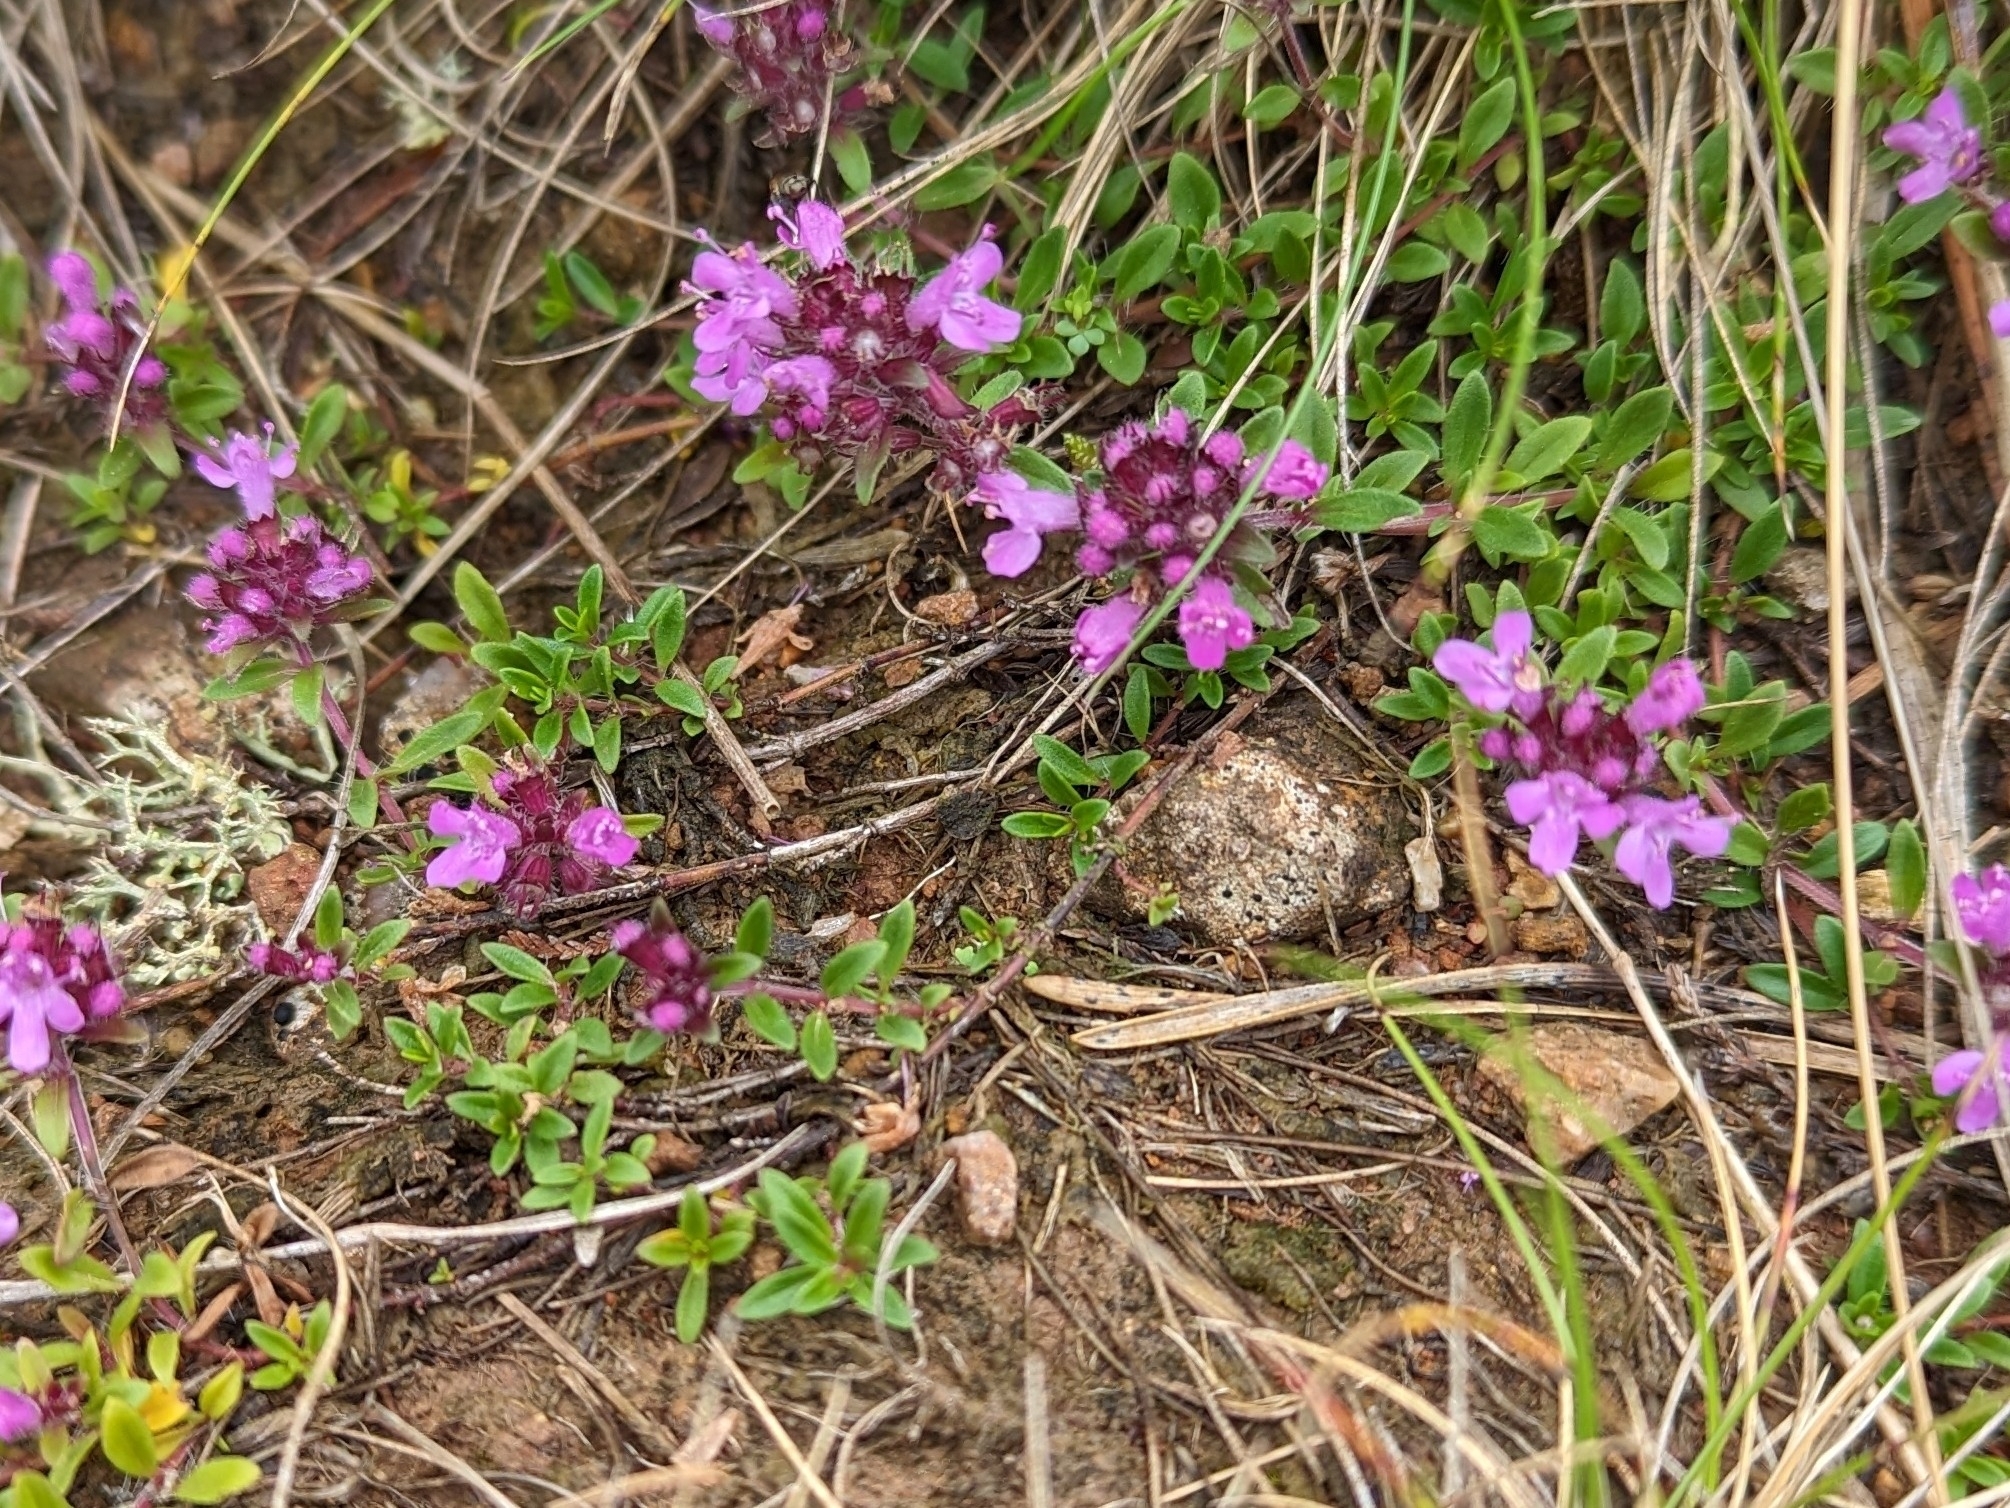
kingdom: Plantae
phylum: Tracheophyta
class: Magnoliopsida
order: Lamiales
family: Lamiaceae
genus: Thymus
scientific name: Thymus praecox
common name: Wild thyme
